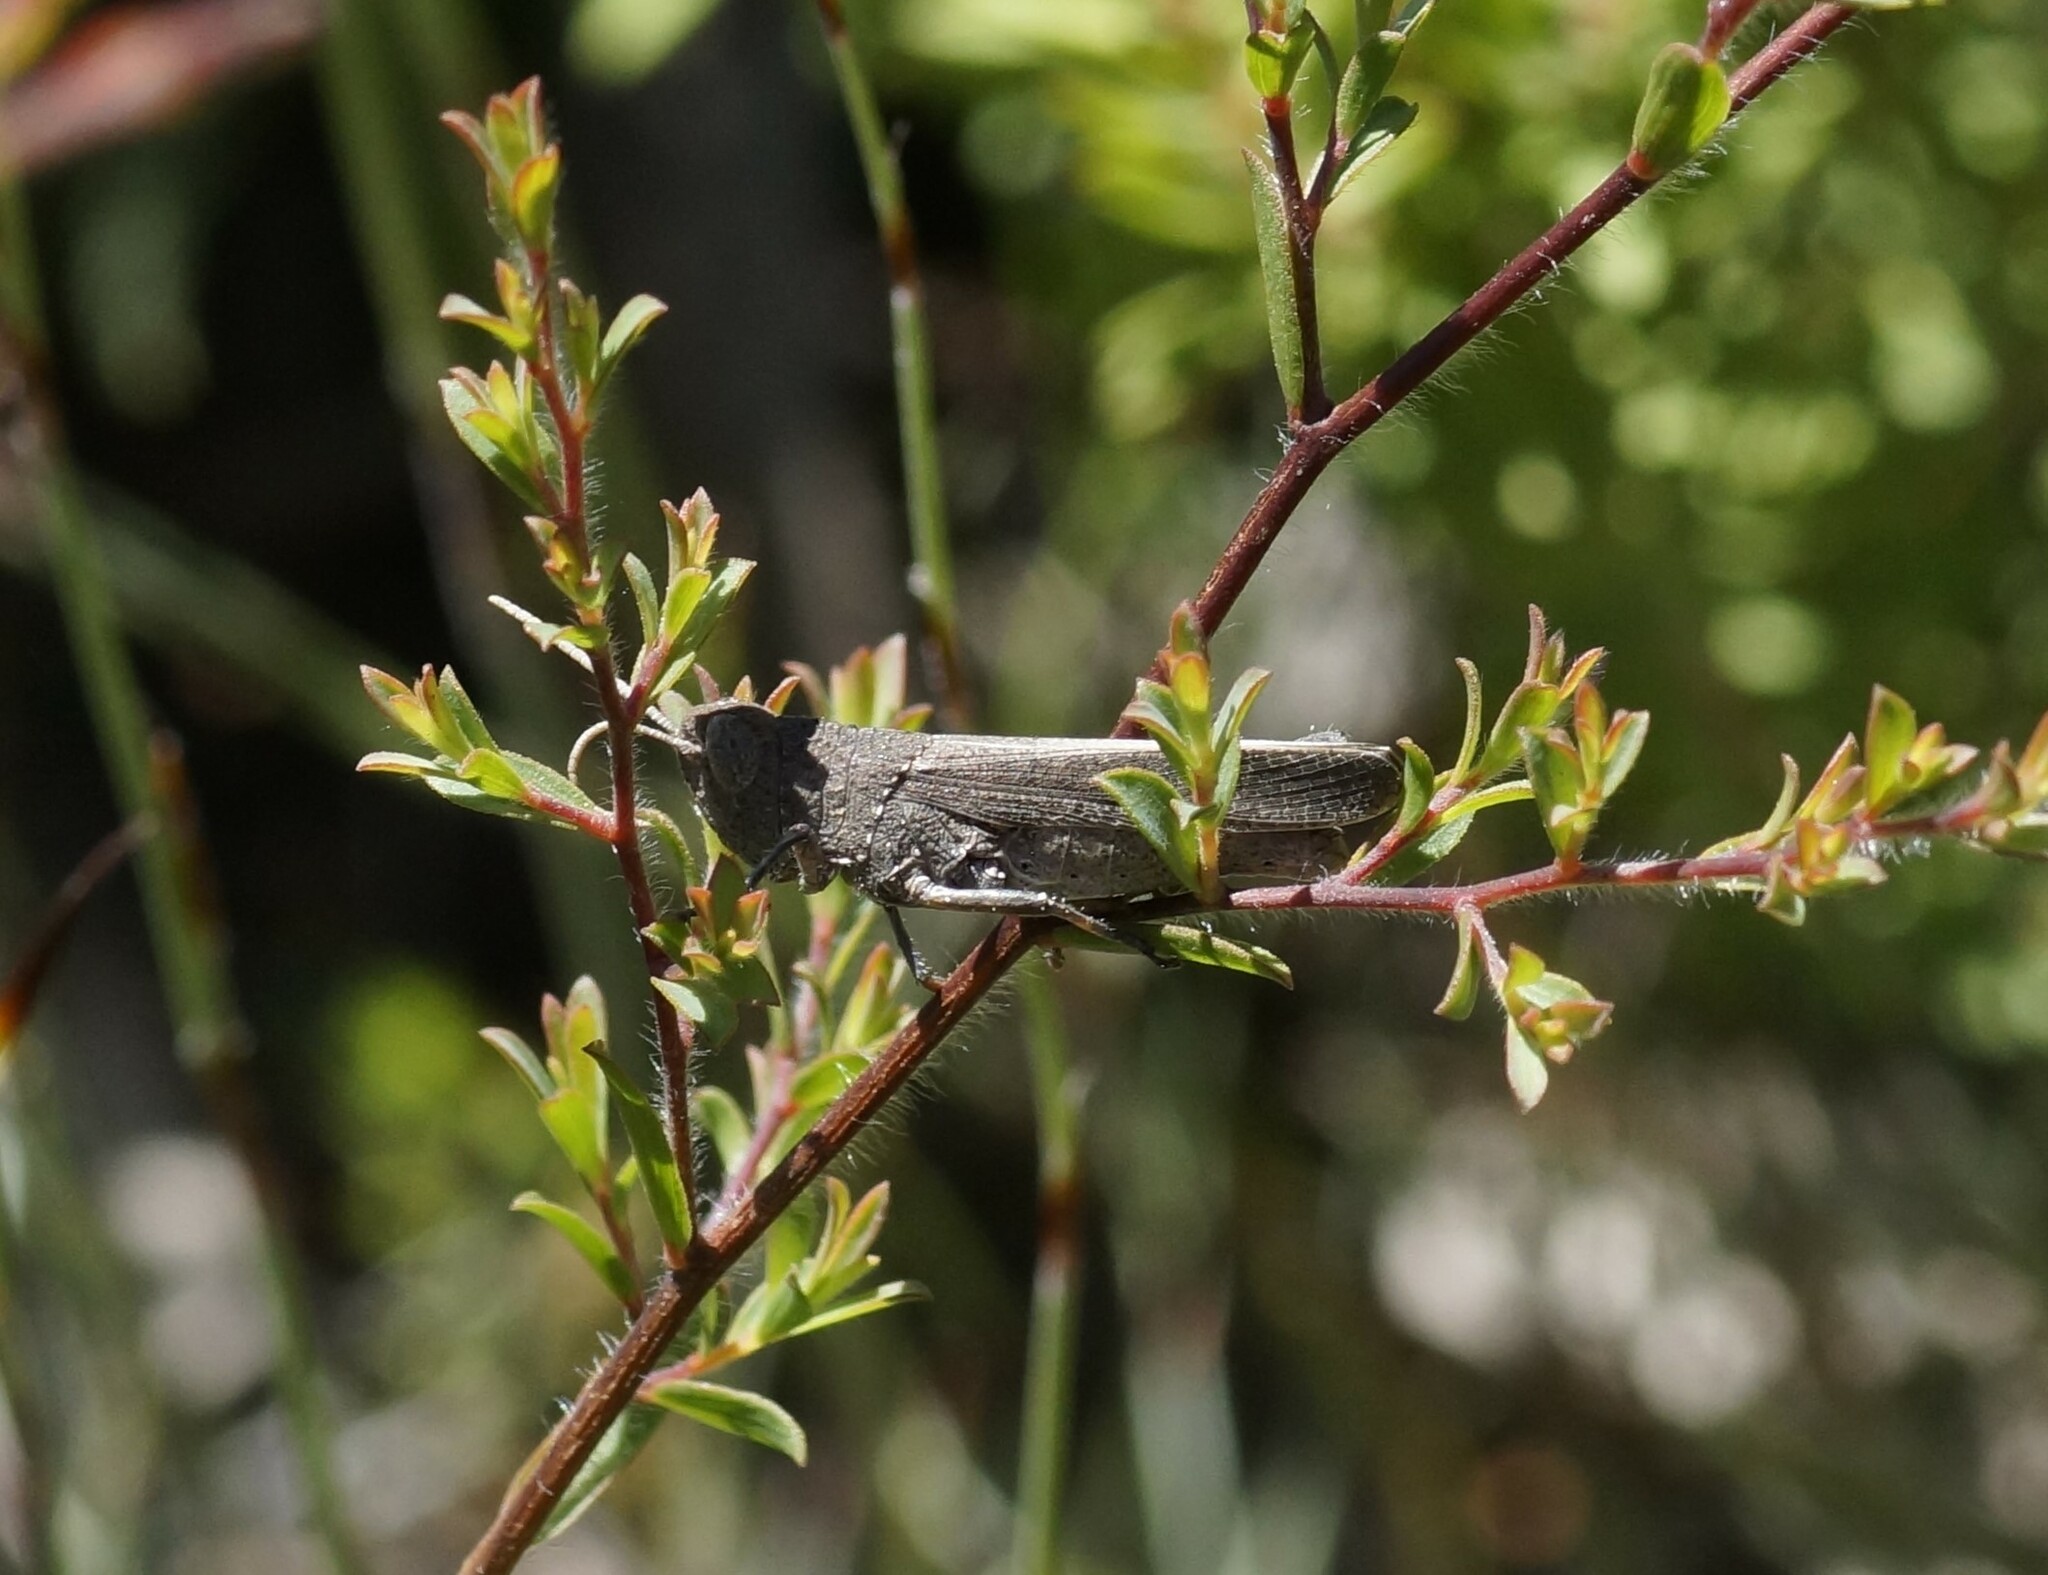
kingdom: Animalia
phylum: Arthropoda
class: Insecta
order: Orthoptera
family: Acrididae
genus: Goniaea
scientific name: Goniaea opomaloides
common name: Mimetic gumleaf grasshopper
